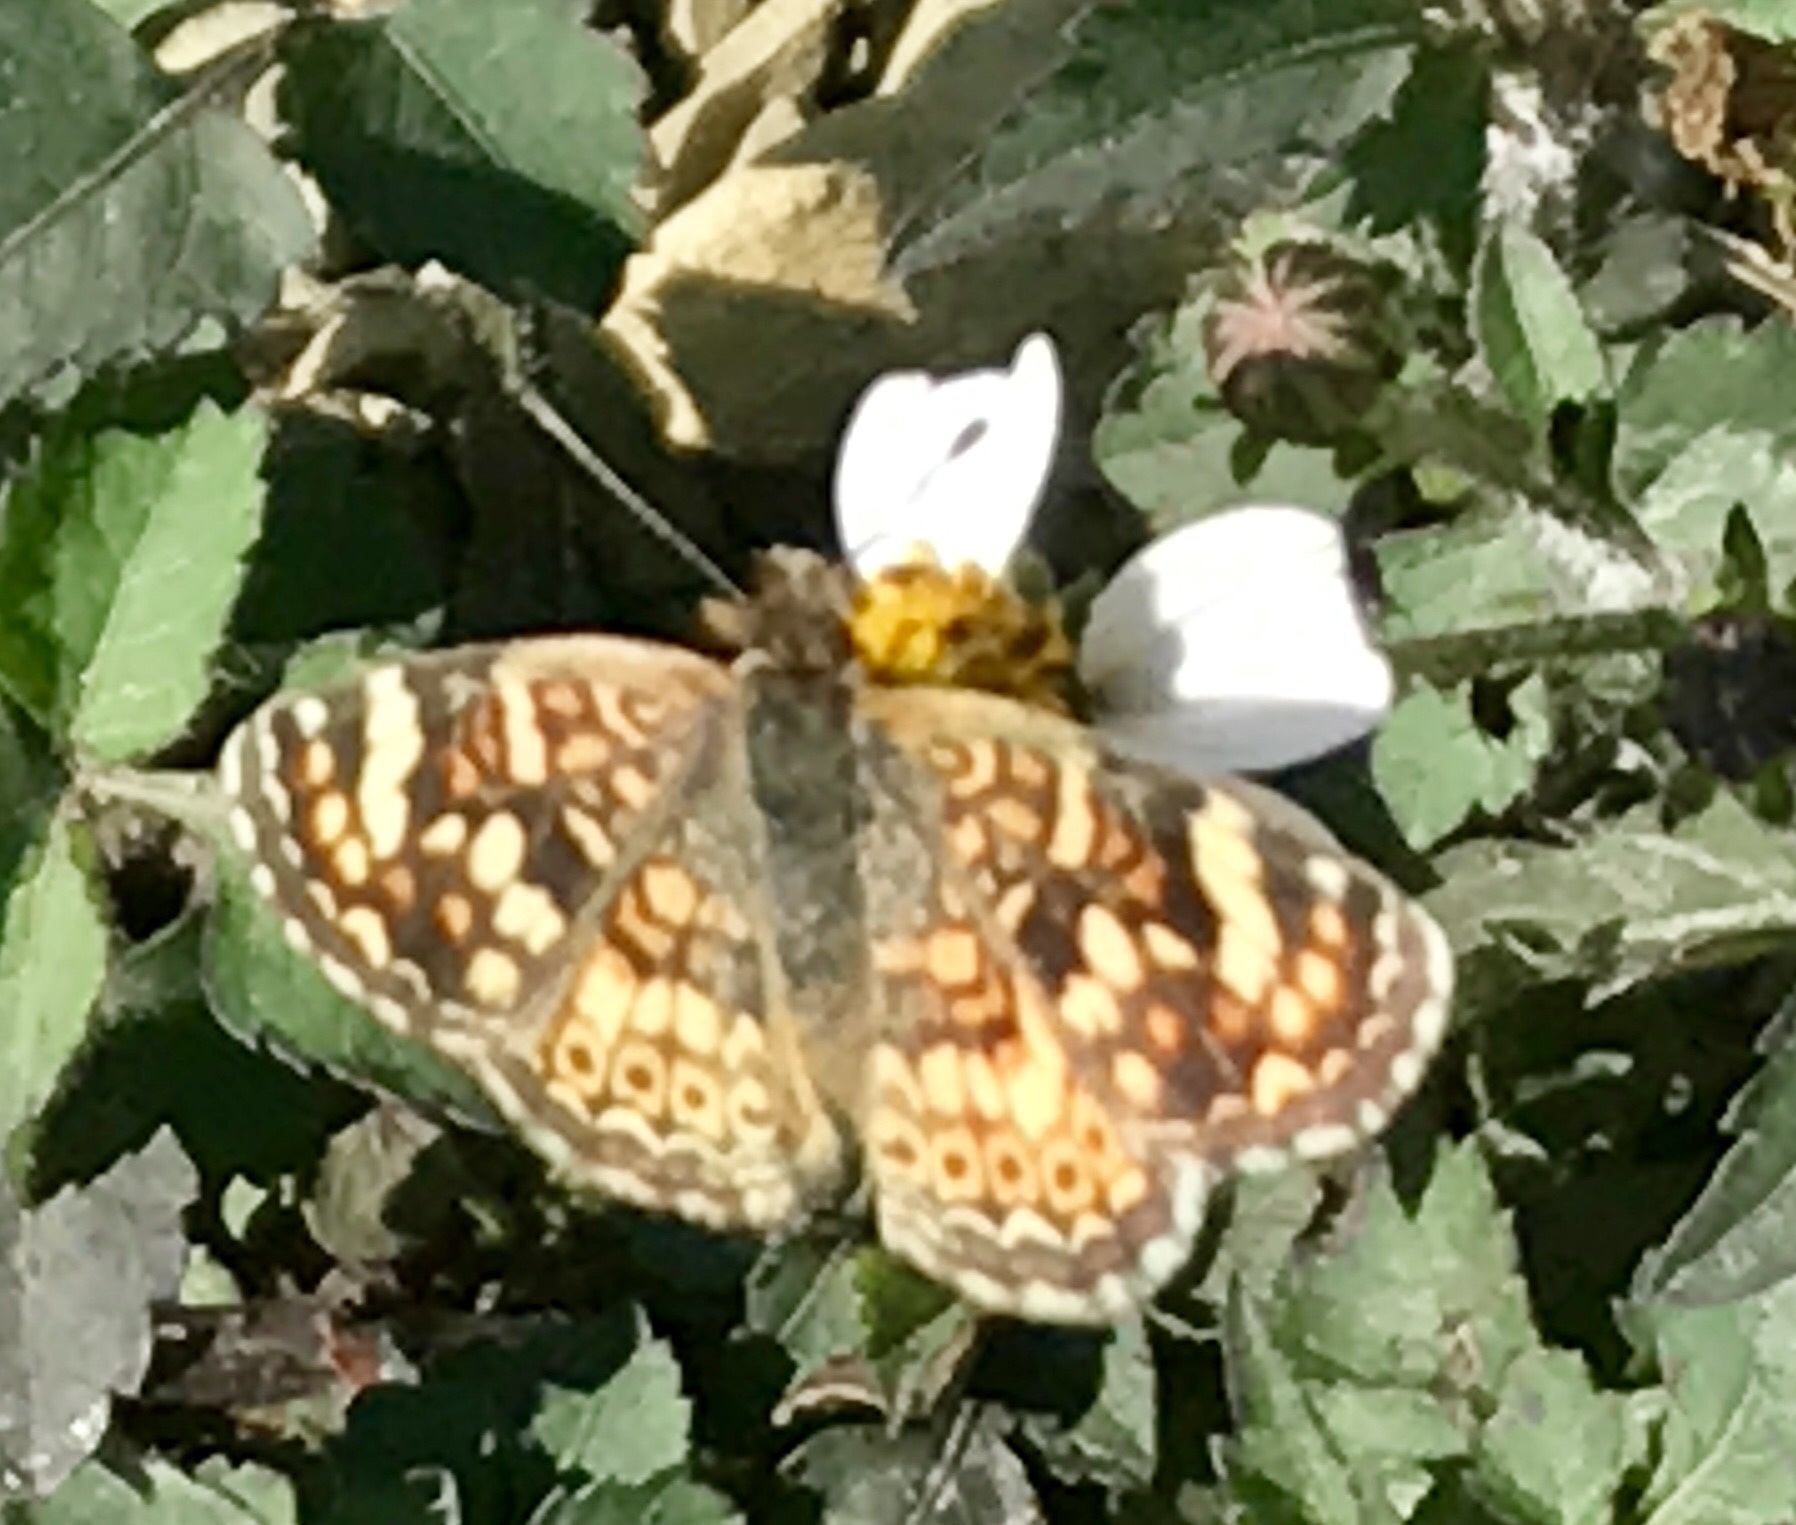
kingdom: Animalia
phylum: Arthropoda
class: Insecta
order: Lepidoptera
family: Nymphalidae
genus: Phyciodes
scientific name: Phyciodes picta
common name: Painted crescent
